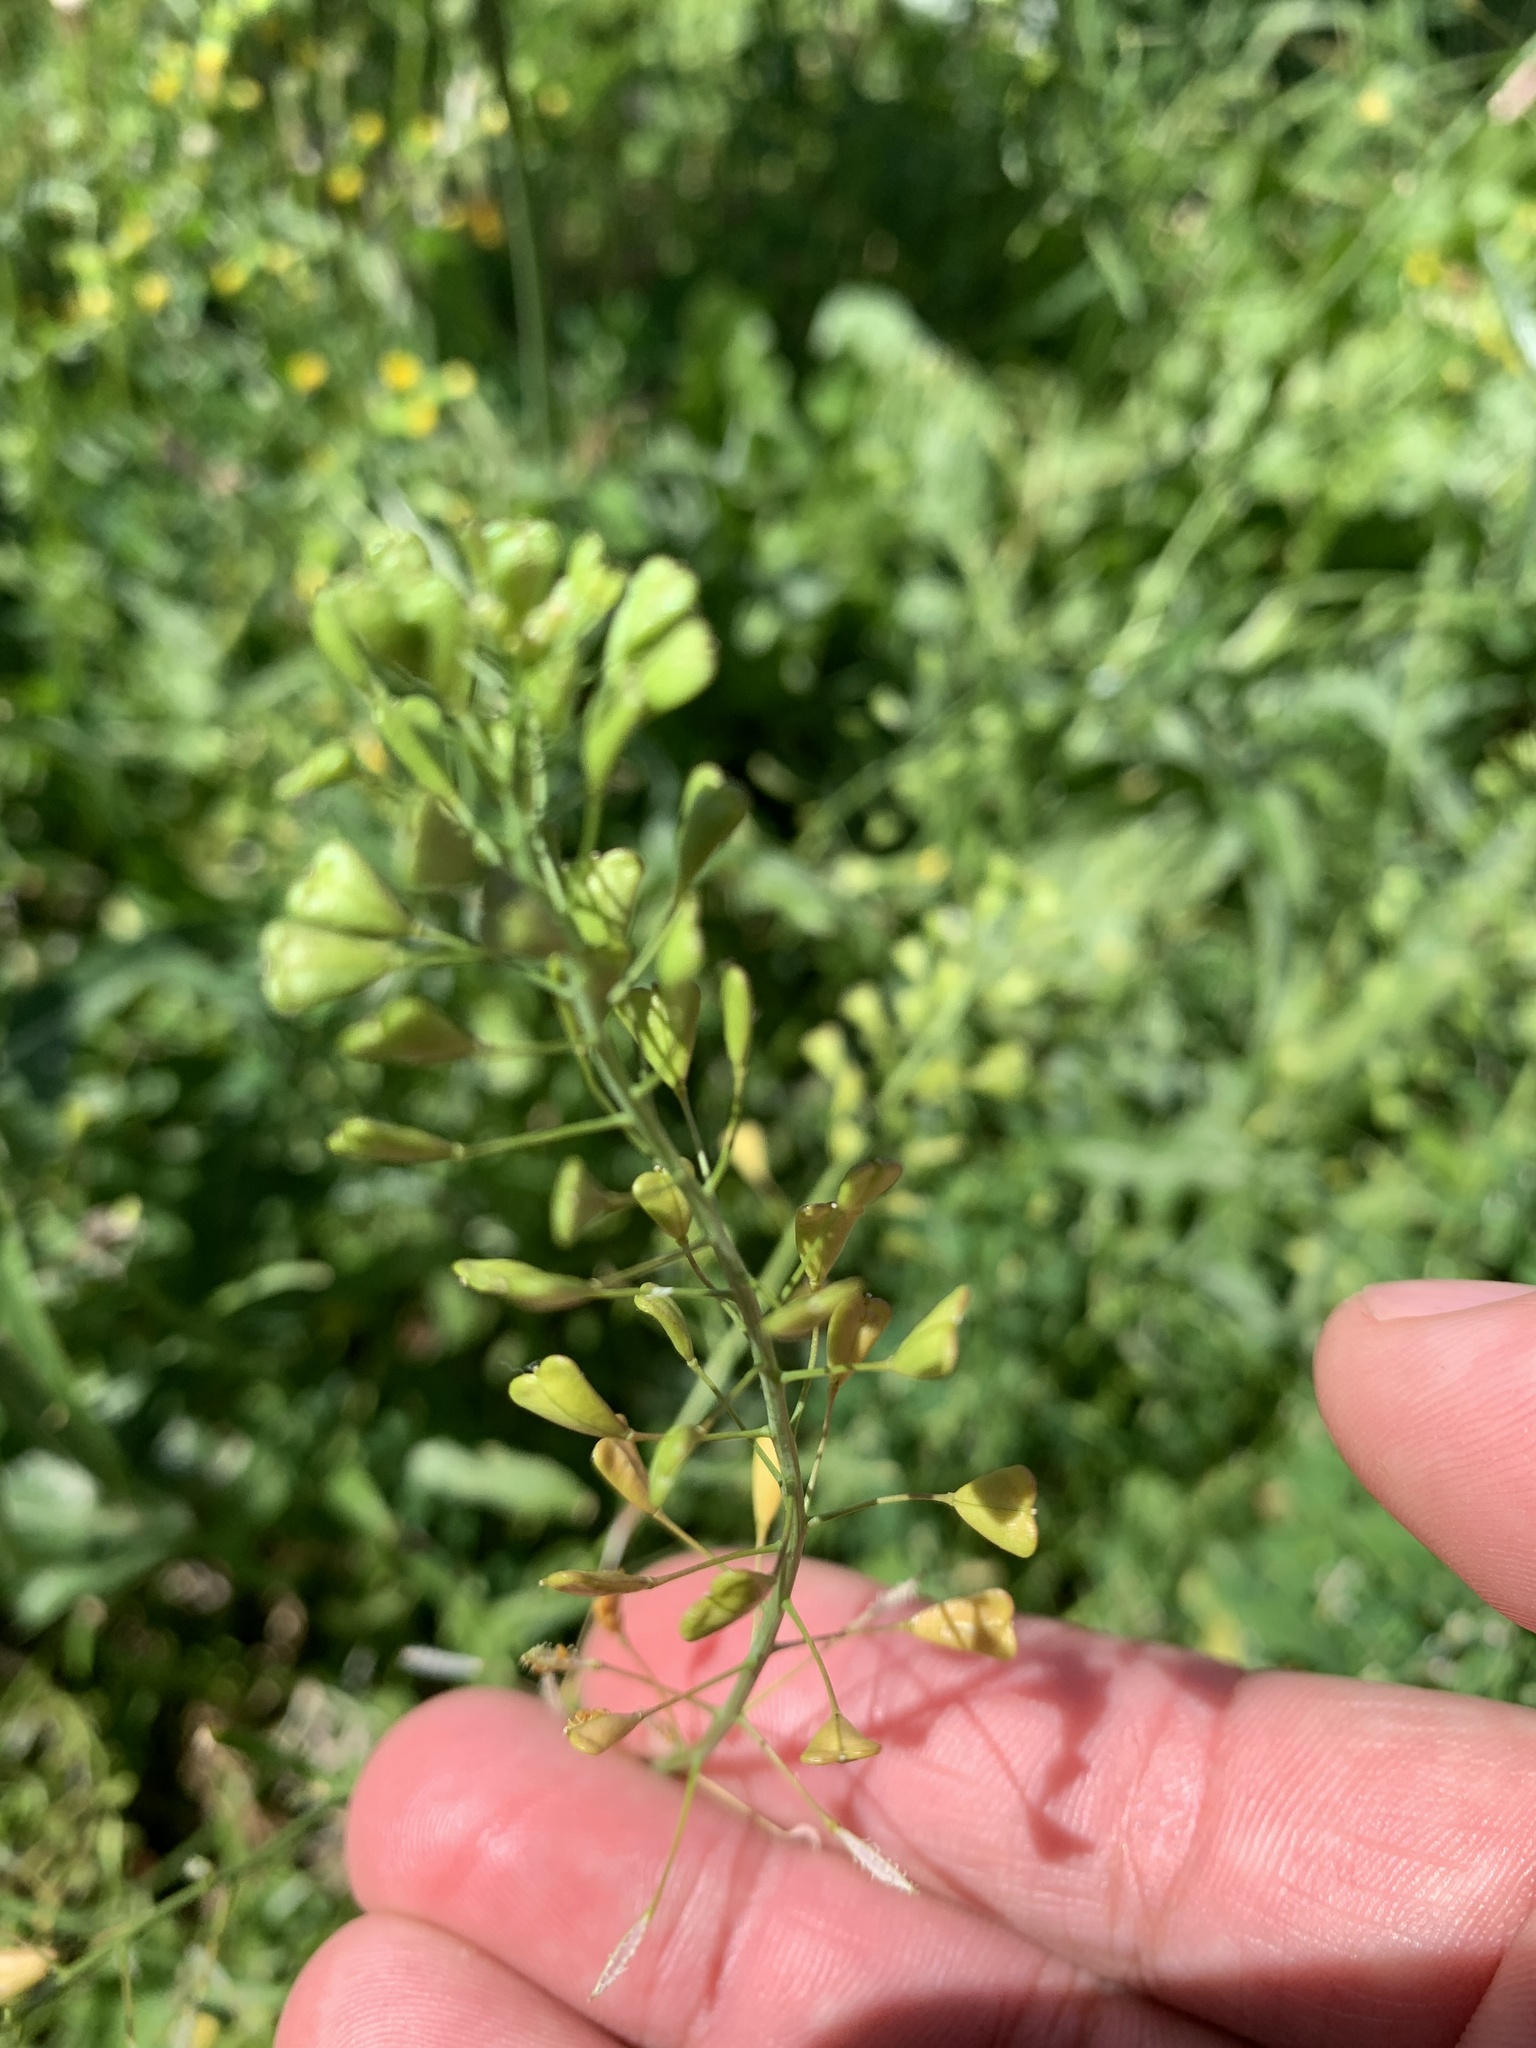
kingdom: Plantae
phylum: Tracheophyta
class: Magnoliopsida
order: Brassicales
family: Brassicaceae
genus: Capsella
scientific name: Capsella bursa-pastoris
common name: Shepherd's purse
